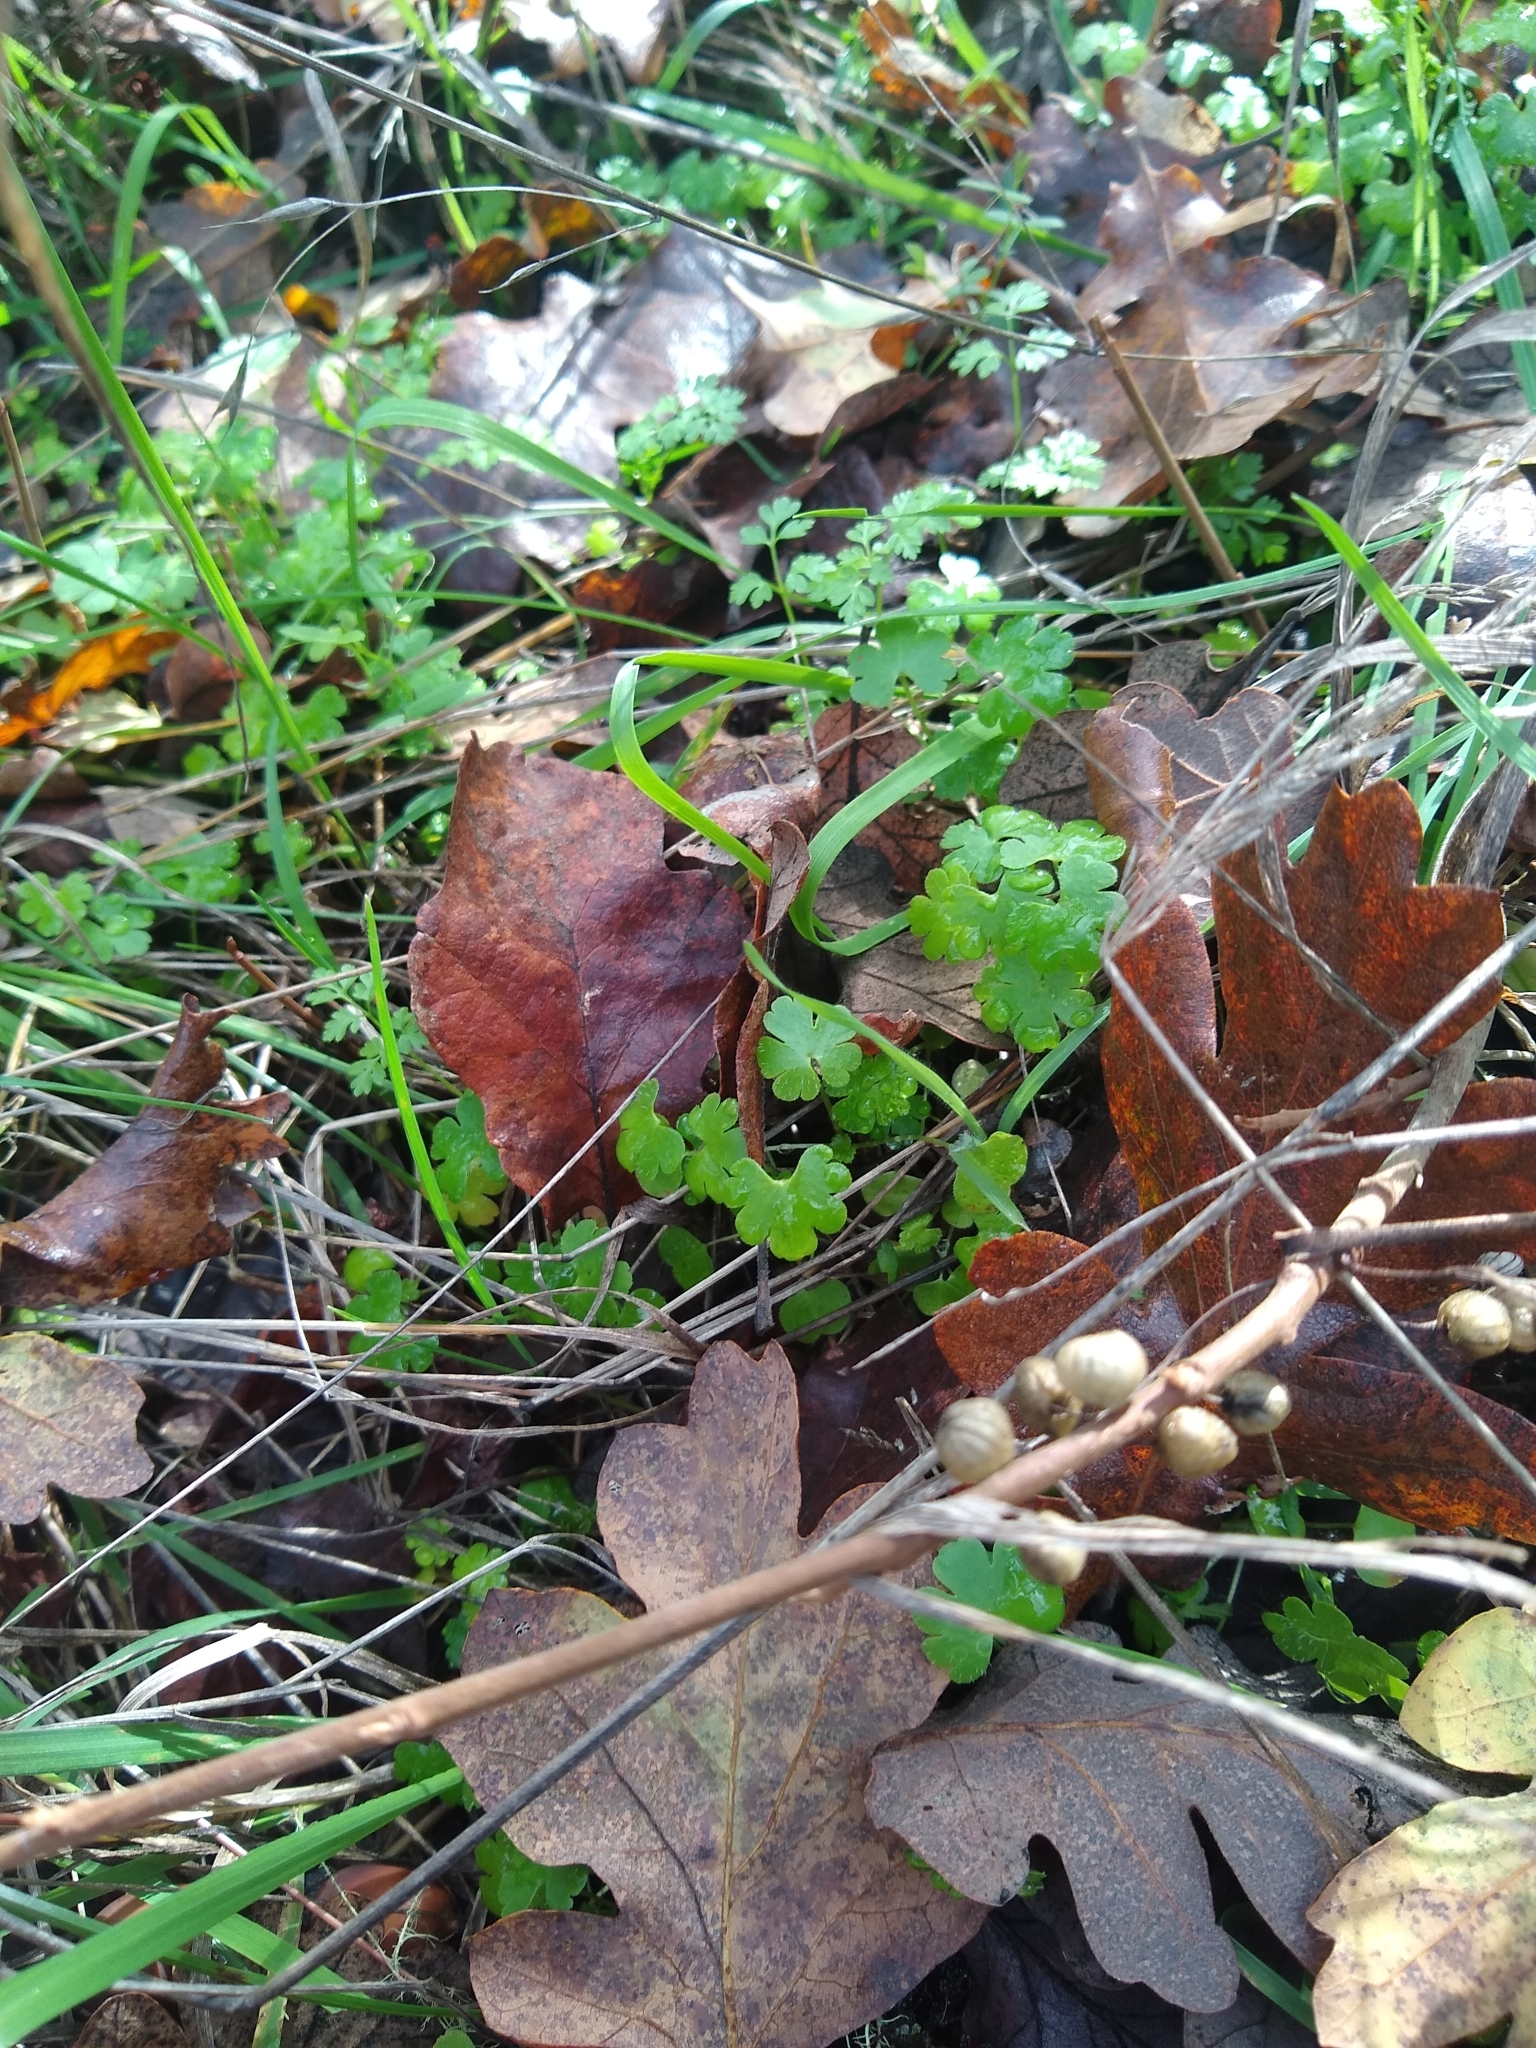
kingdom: Plantae
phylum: Tracheophyta
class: Magnoliopsida
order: Sapindales
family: Anacardiaceae
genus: Toxicodendron
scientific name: Toxicodendron diversilobum
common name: Pacific poison-oak
